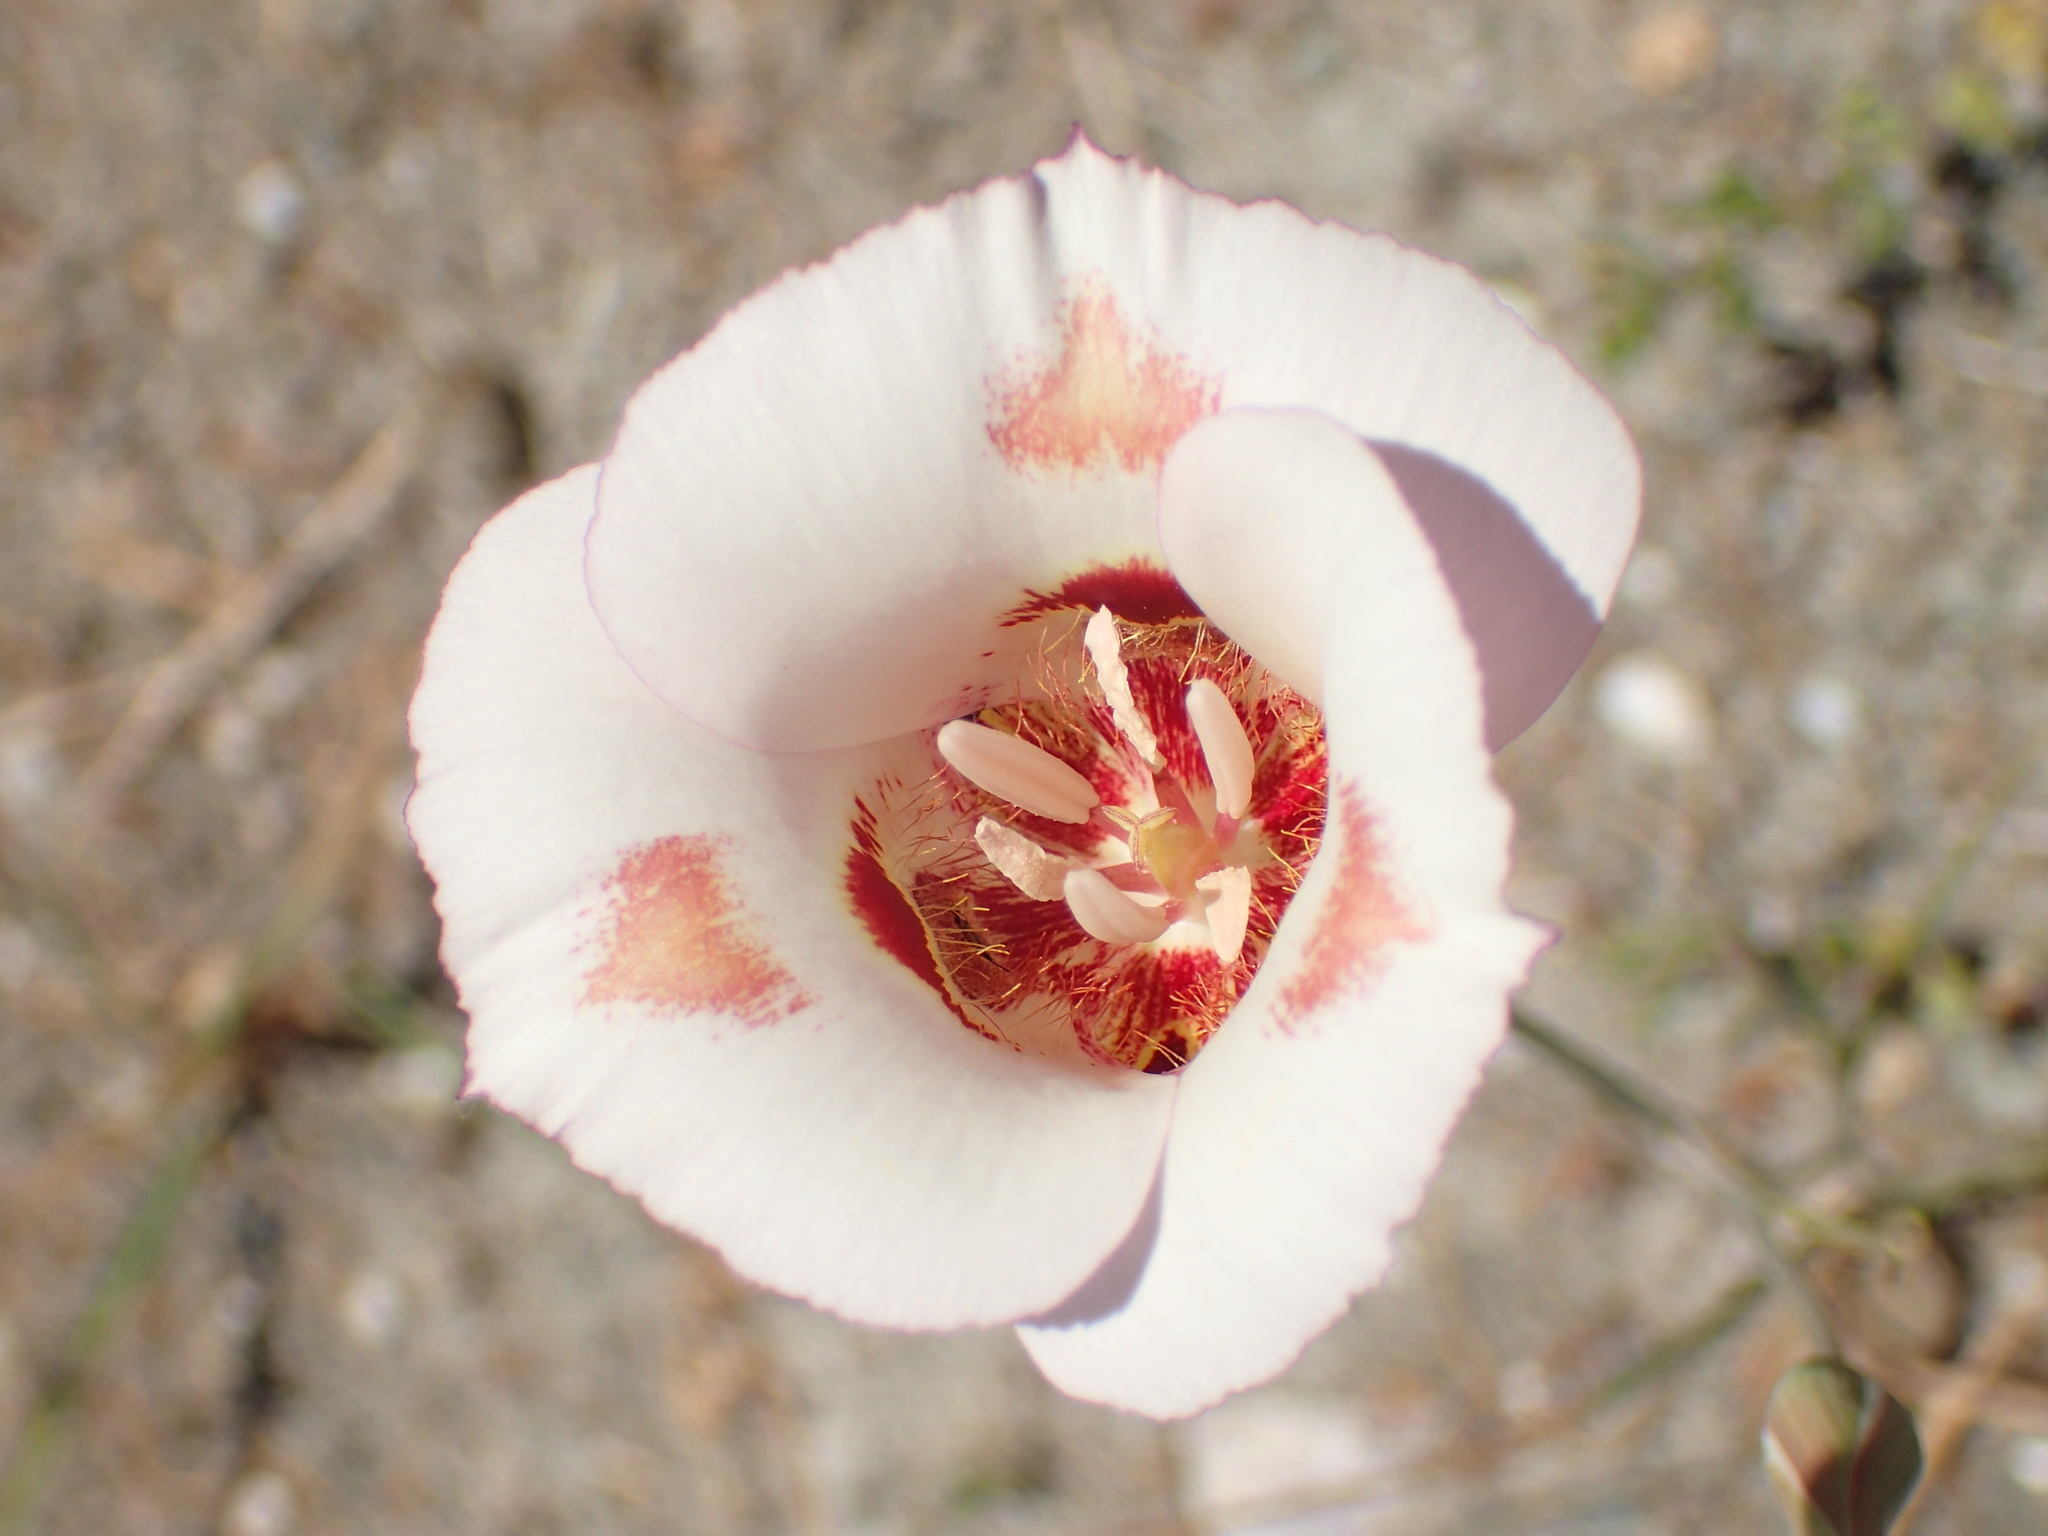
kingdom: Plantae
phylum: Tracheophyta
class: Liliopsida
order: Liliales
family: Liliaceae
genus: Calochortus
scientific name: Calochortus venustus
